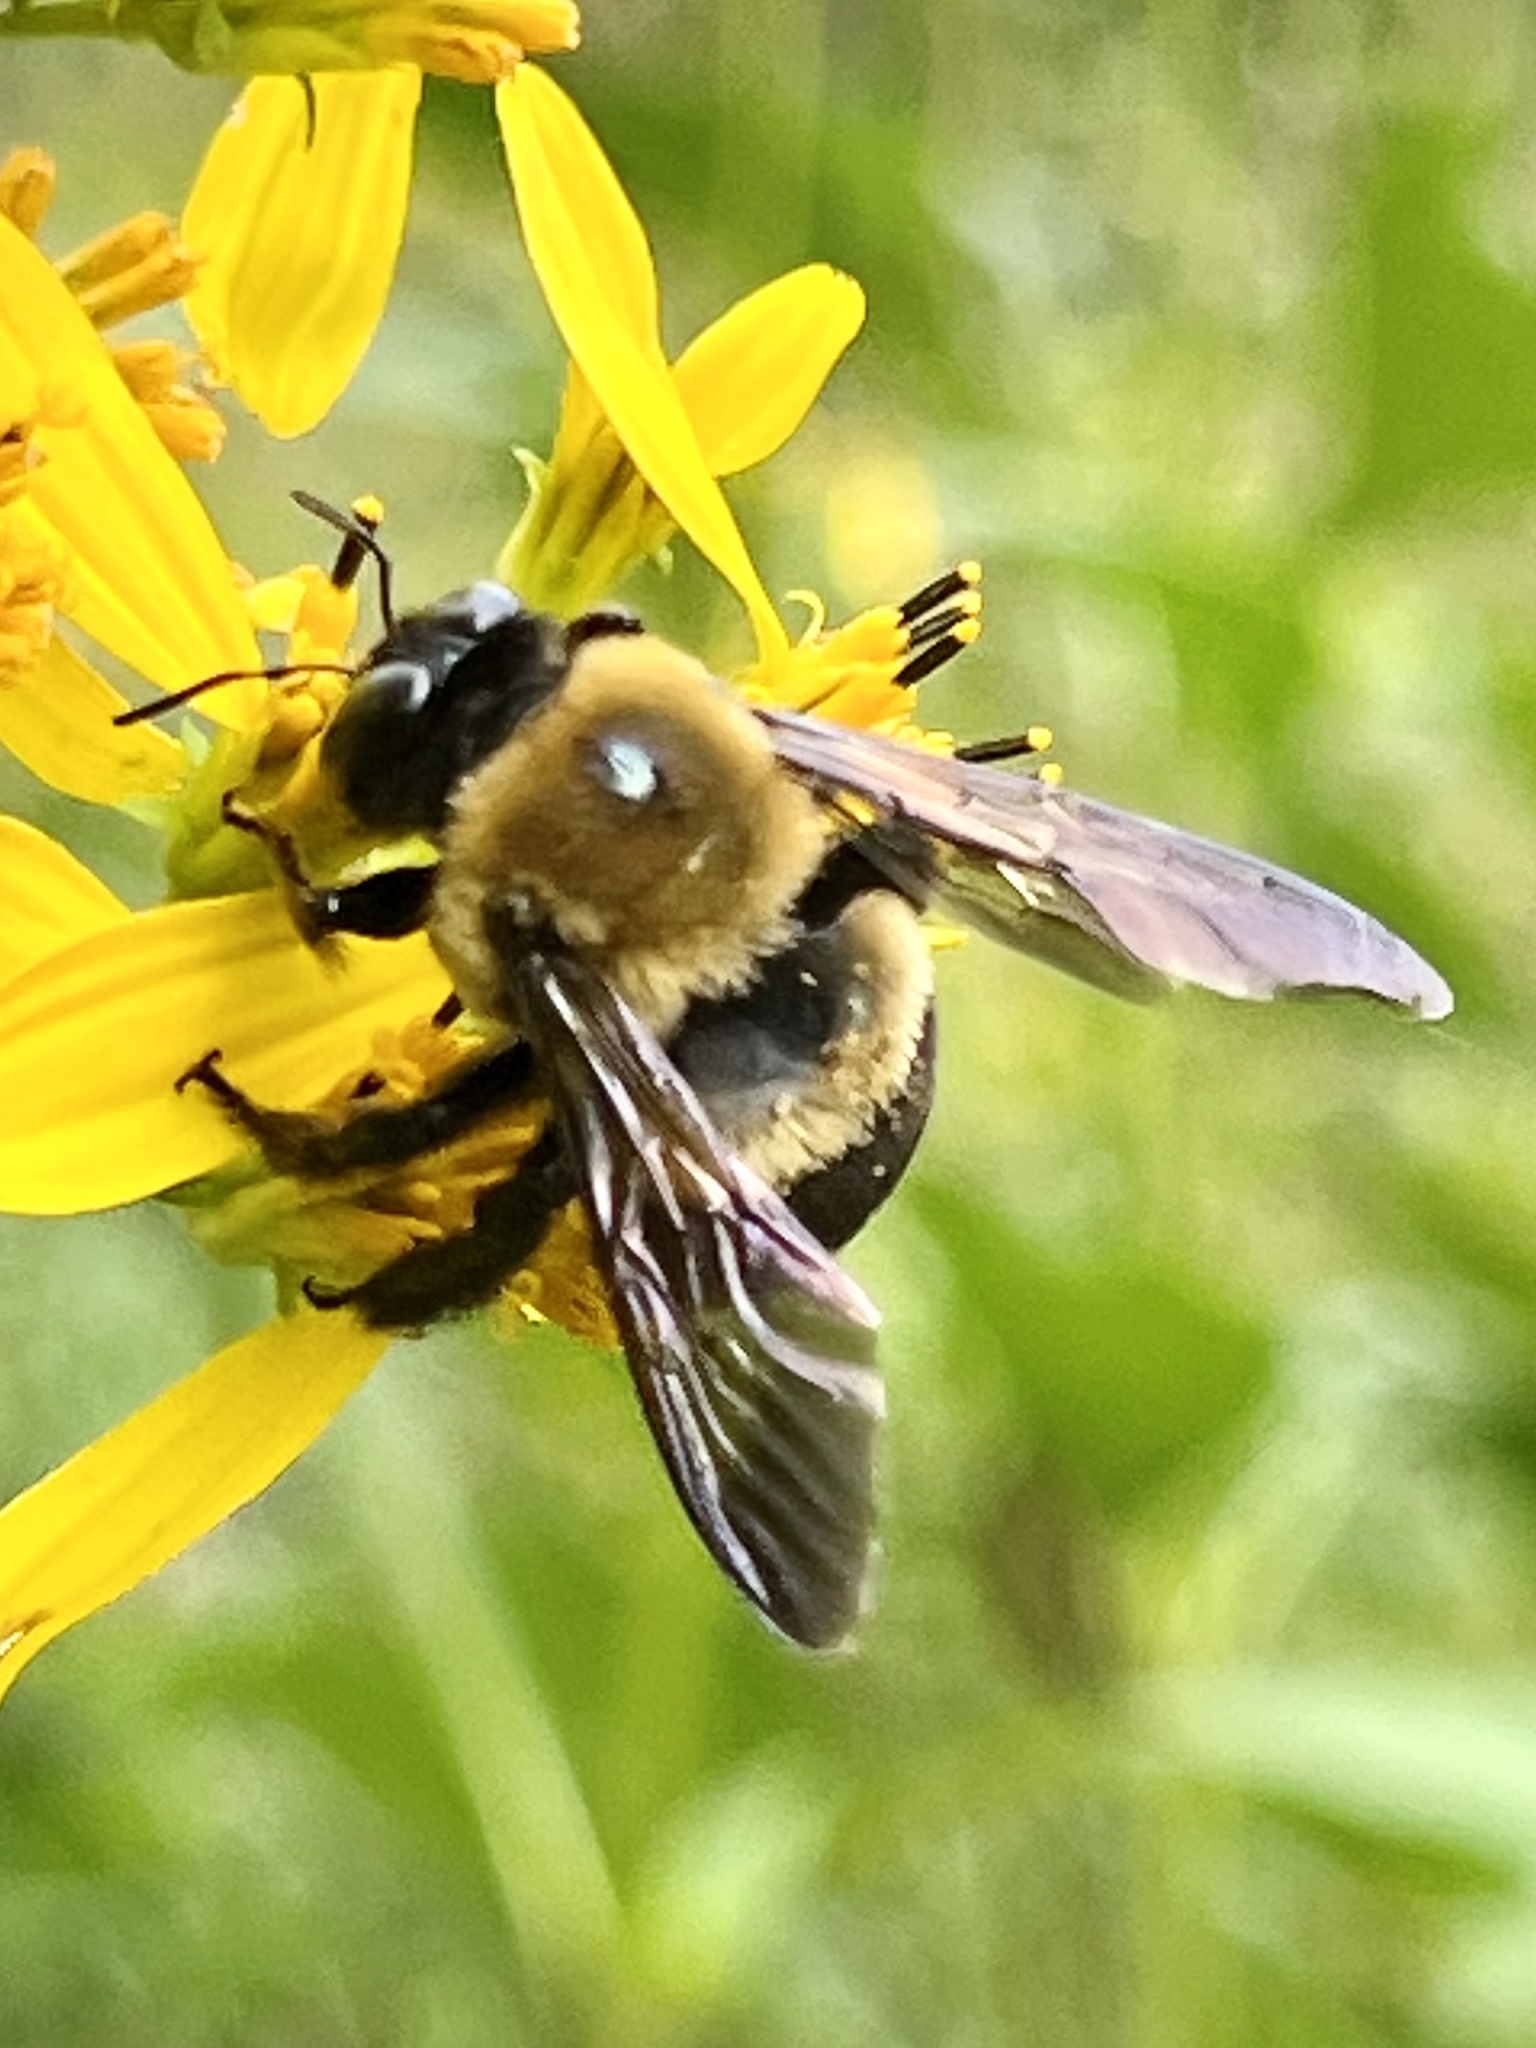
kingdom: Animalia
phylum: Arthropoda
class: Insecta
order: Hymenoptera
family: Apidae
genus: Xylocopa
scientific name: Xylocopa virginica
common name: Carpenter bee
